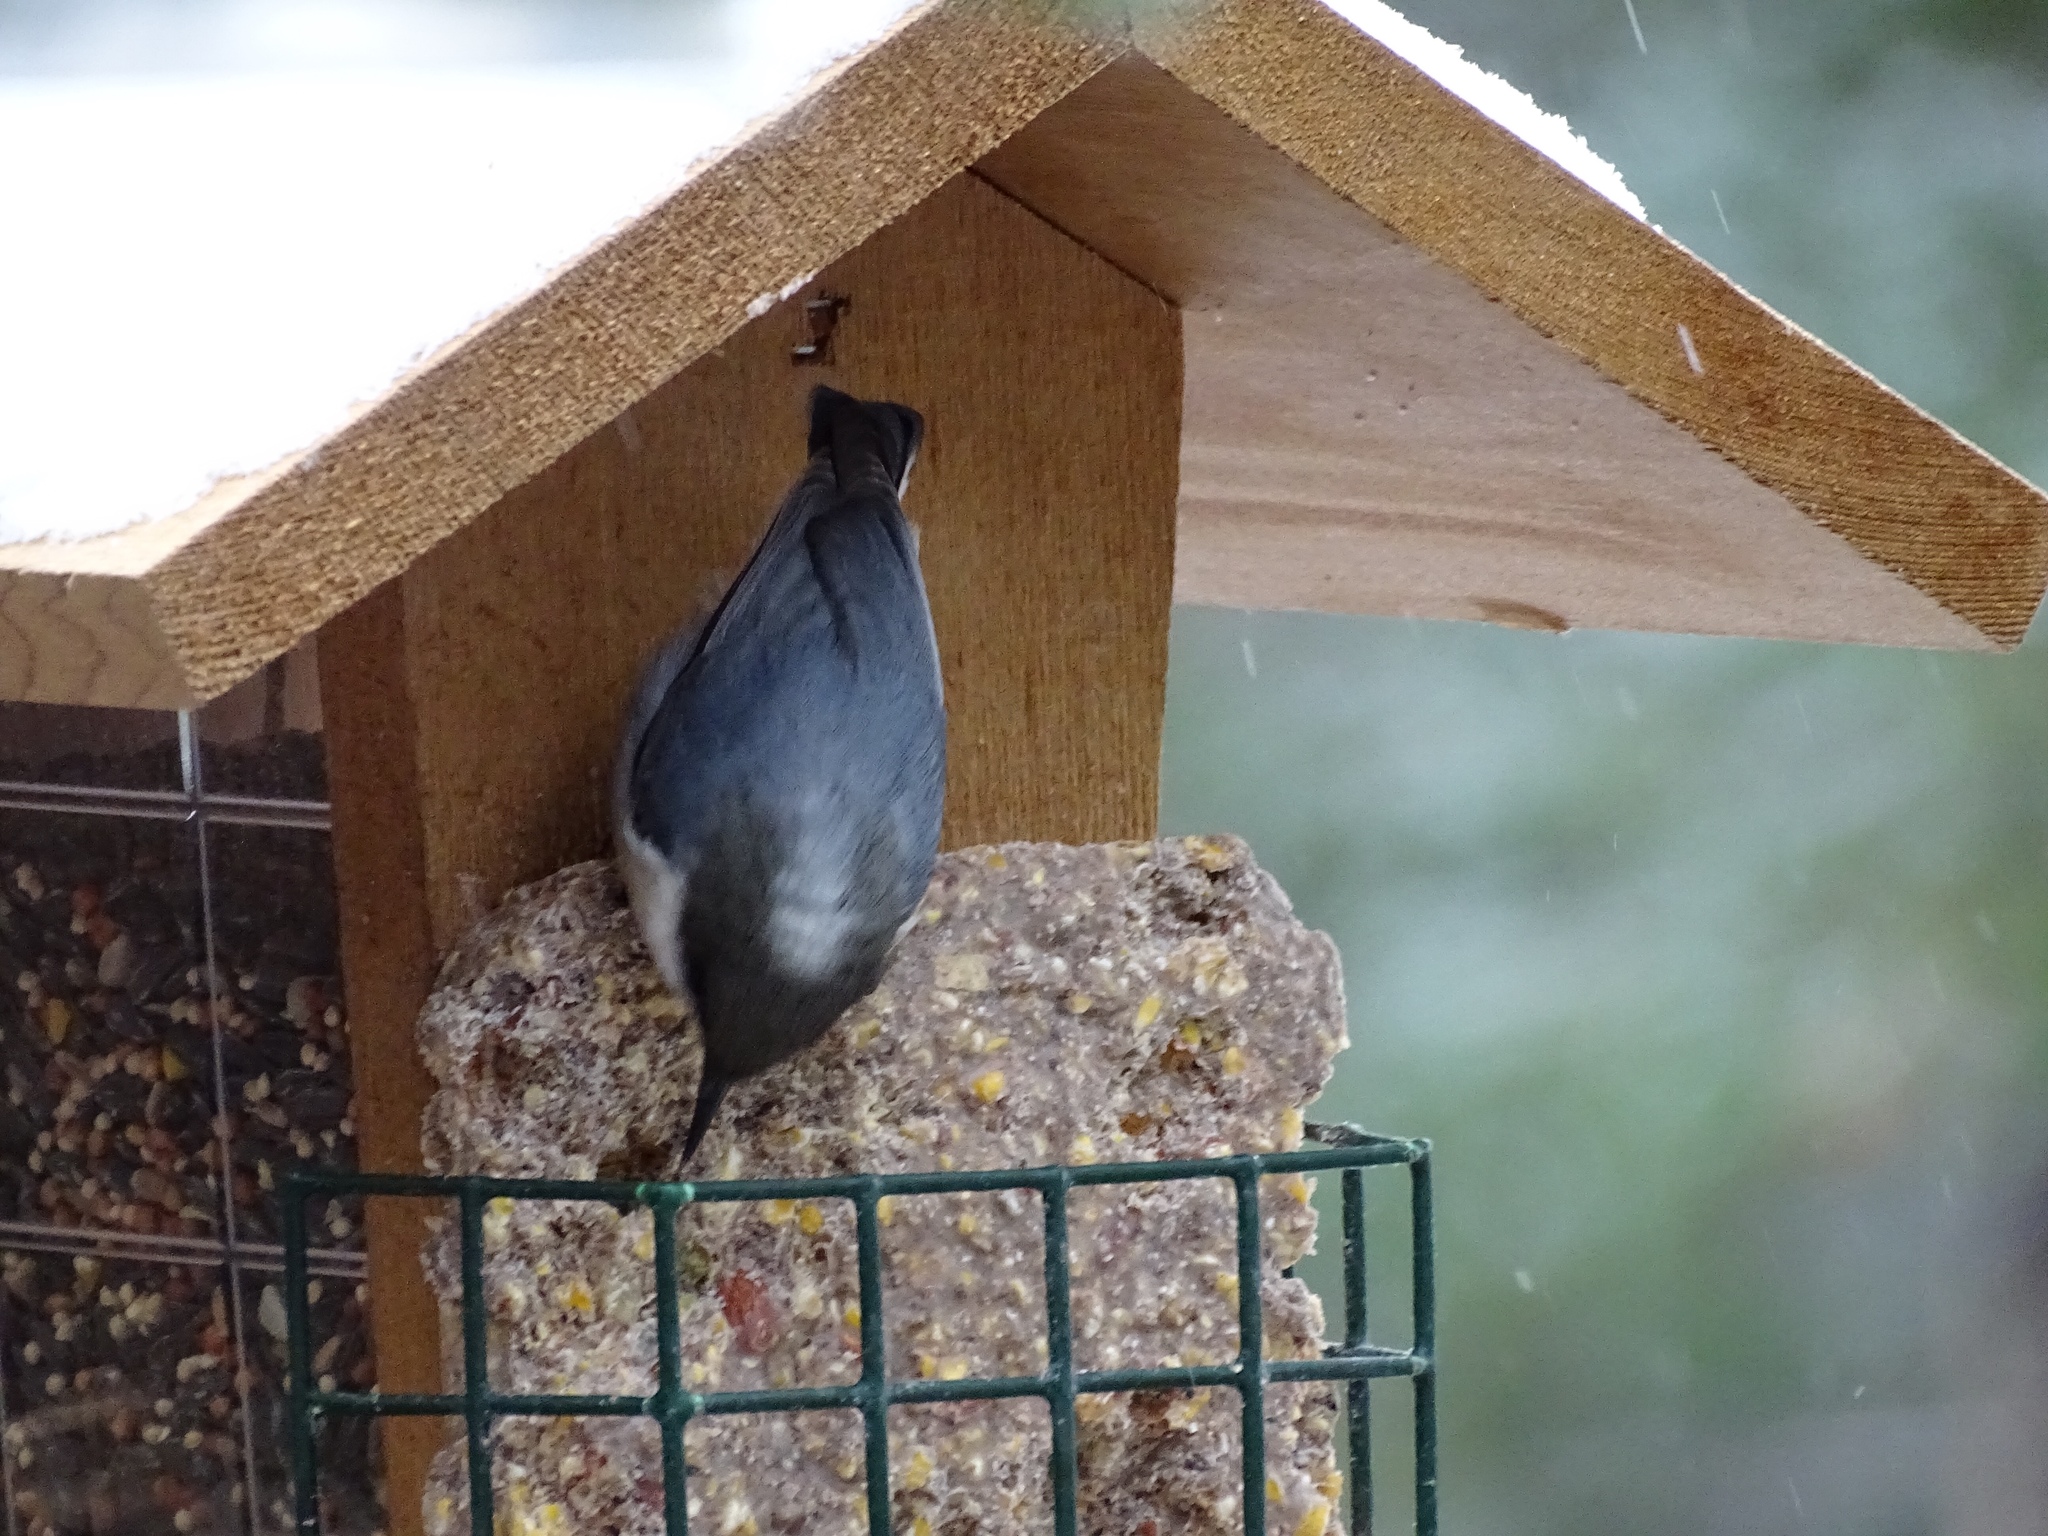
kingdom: Animalia
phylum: Chordata
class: Aves
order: Passeriformes
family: Sittidae
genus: Sitta
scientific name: Sitta pygmaea
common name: Pygmy nuthatch
